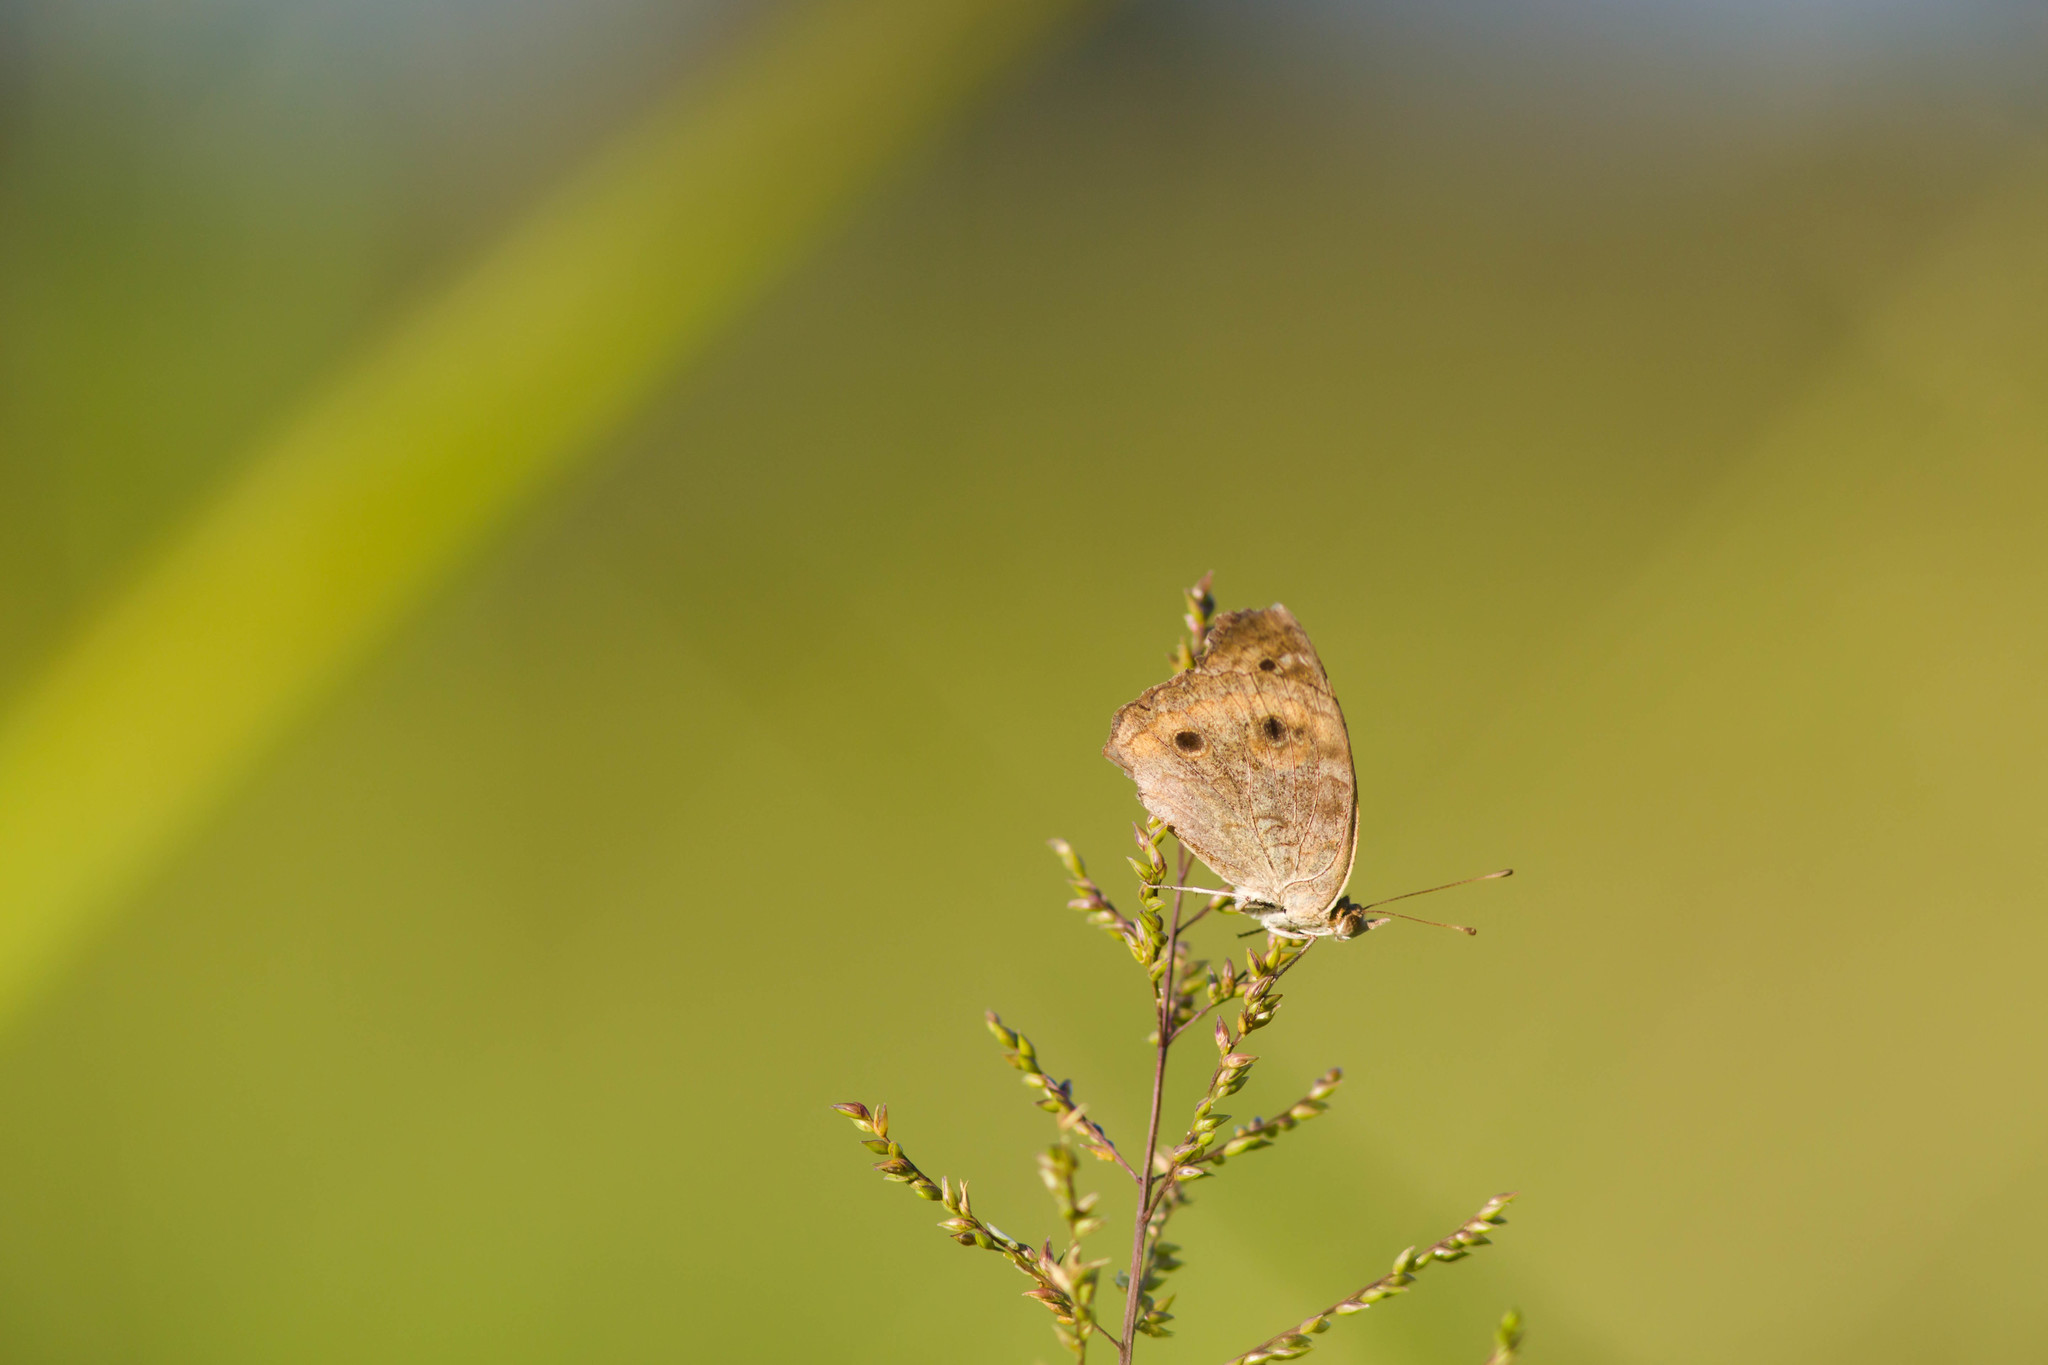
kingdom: Animalia
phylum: Arthropoda
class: Insecta
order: Lepidoptera
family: Nymphalidae
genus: Junonia
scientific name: Junonia coenia
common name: Common buckeye
